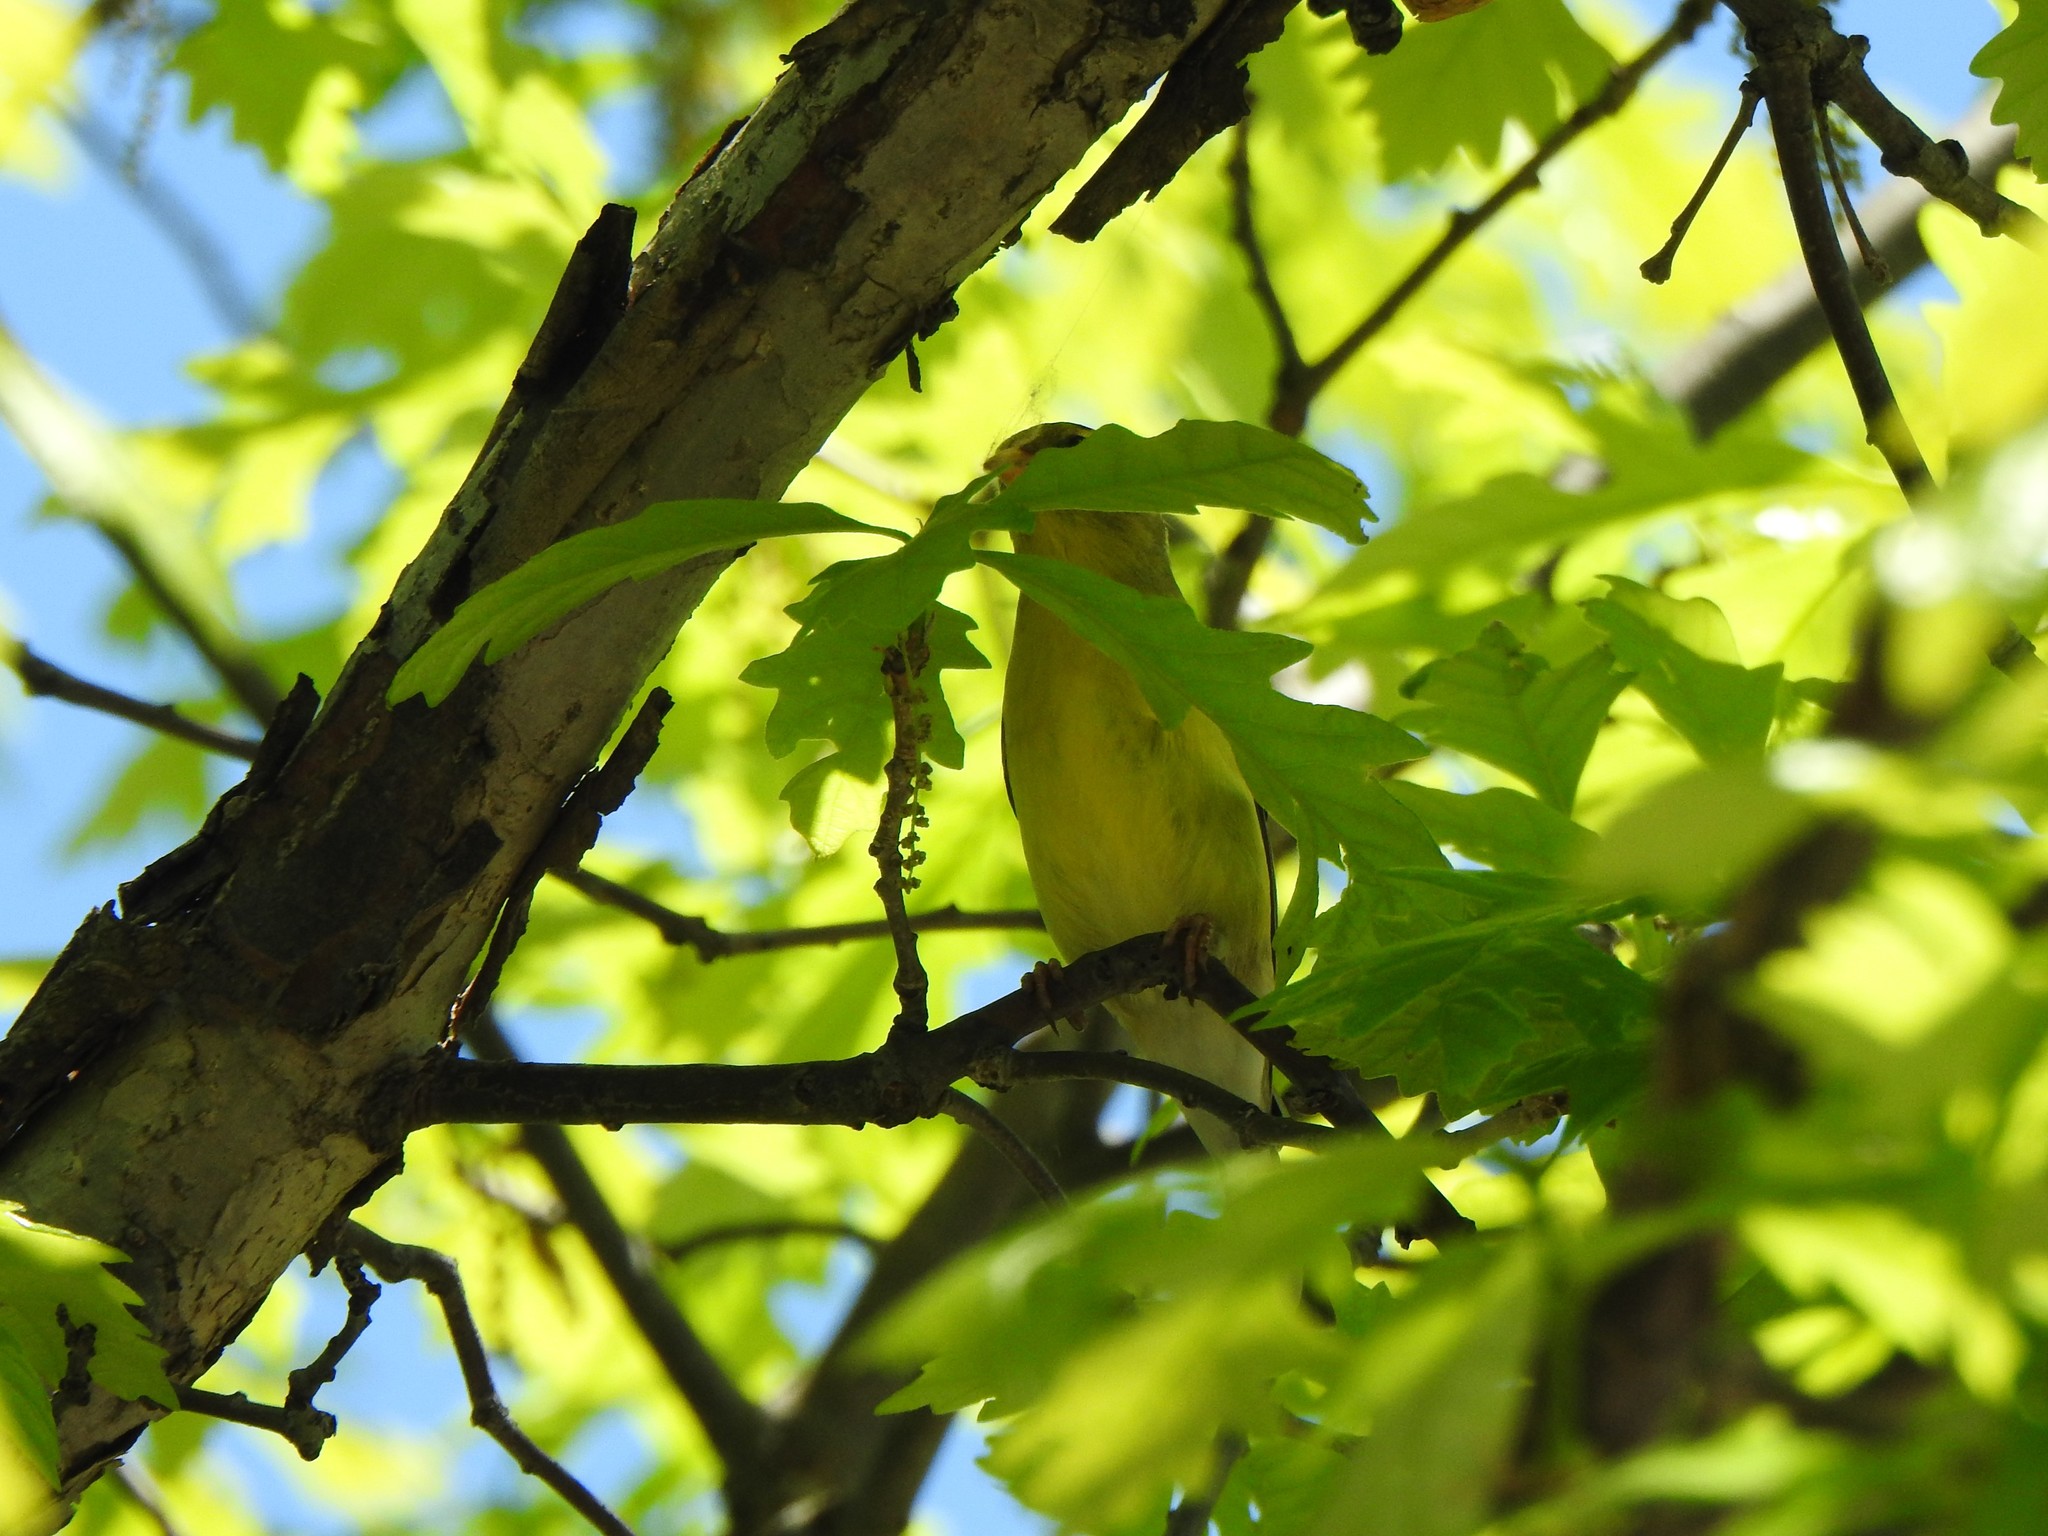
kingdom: Animalia
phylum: Chordata
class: Aves
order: Passeriformes
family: Fringillidae
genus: Spinus
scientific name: Spinus tristis
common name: American goldfinch
